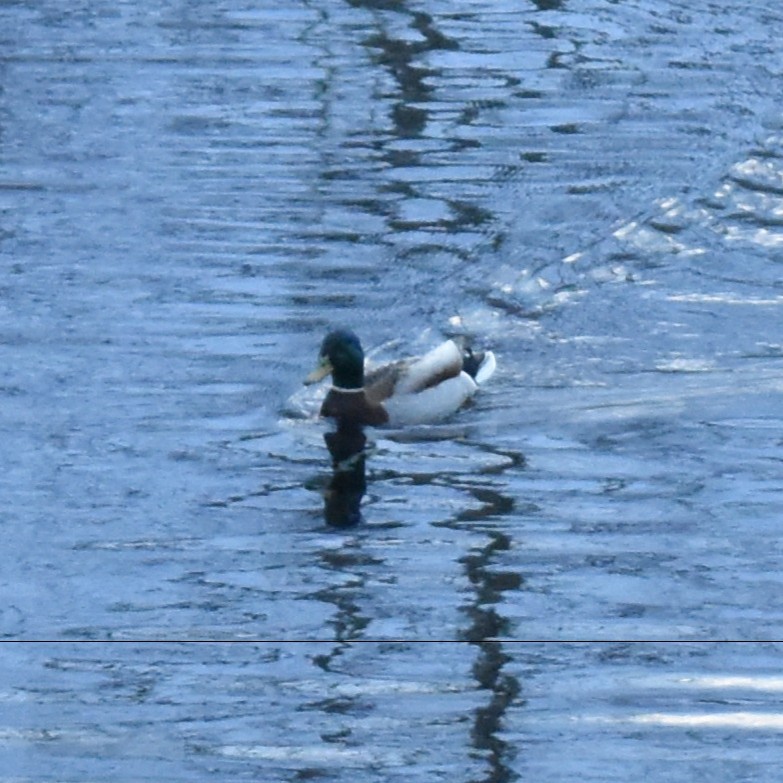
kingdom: Animalia
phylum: Chordata
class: Aves
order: Anseriformes
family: Anatidae
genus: Anas
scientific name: Anas platyrhynchos
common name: Mallard
